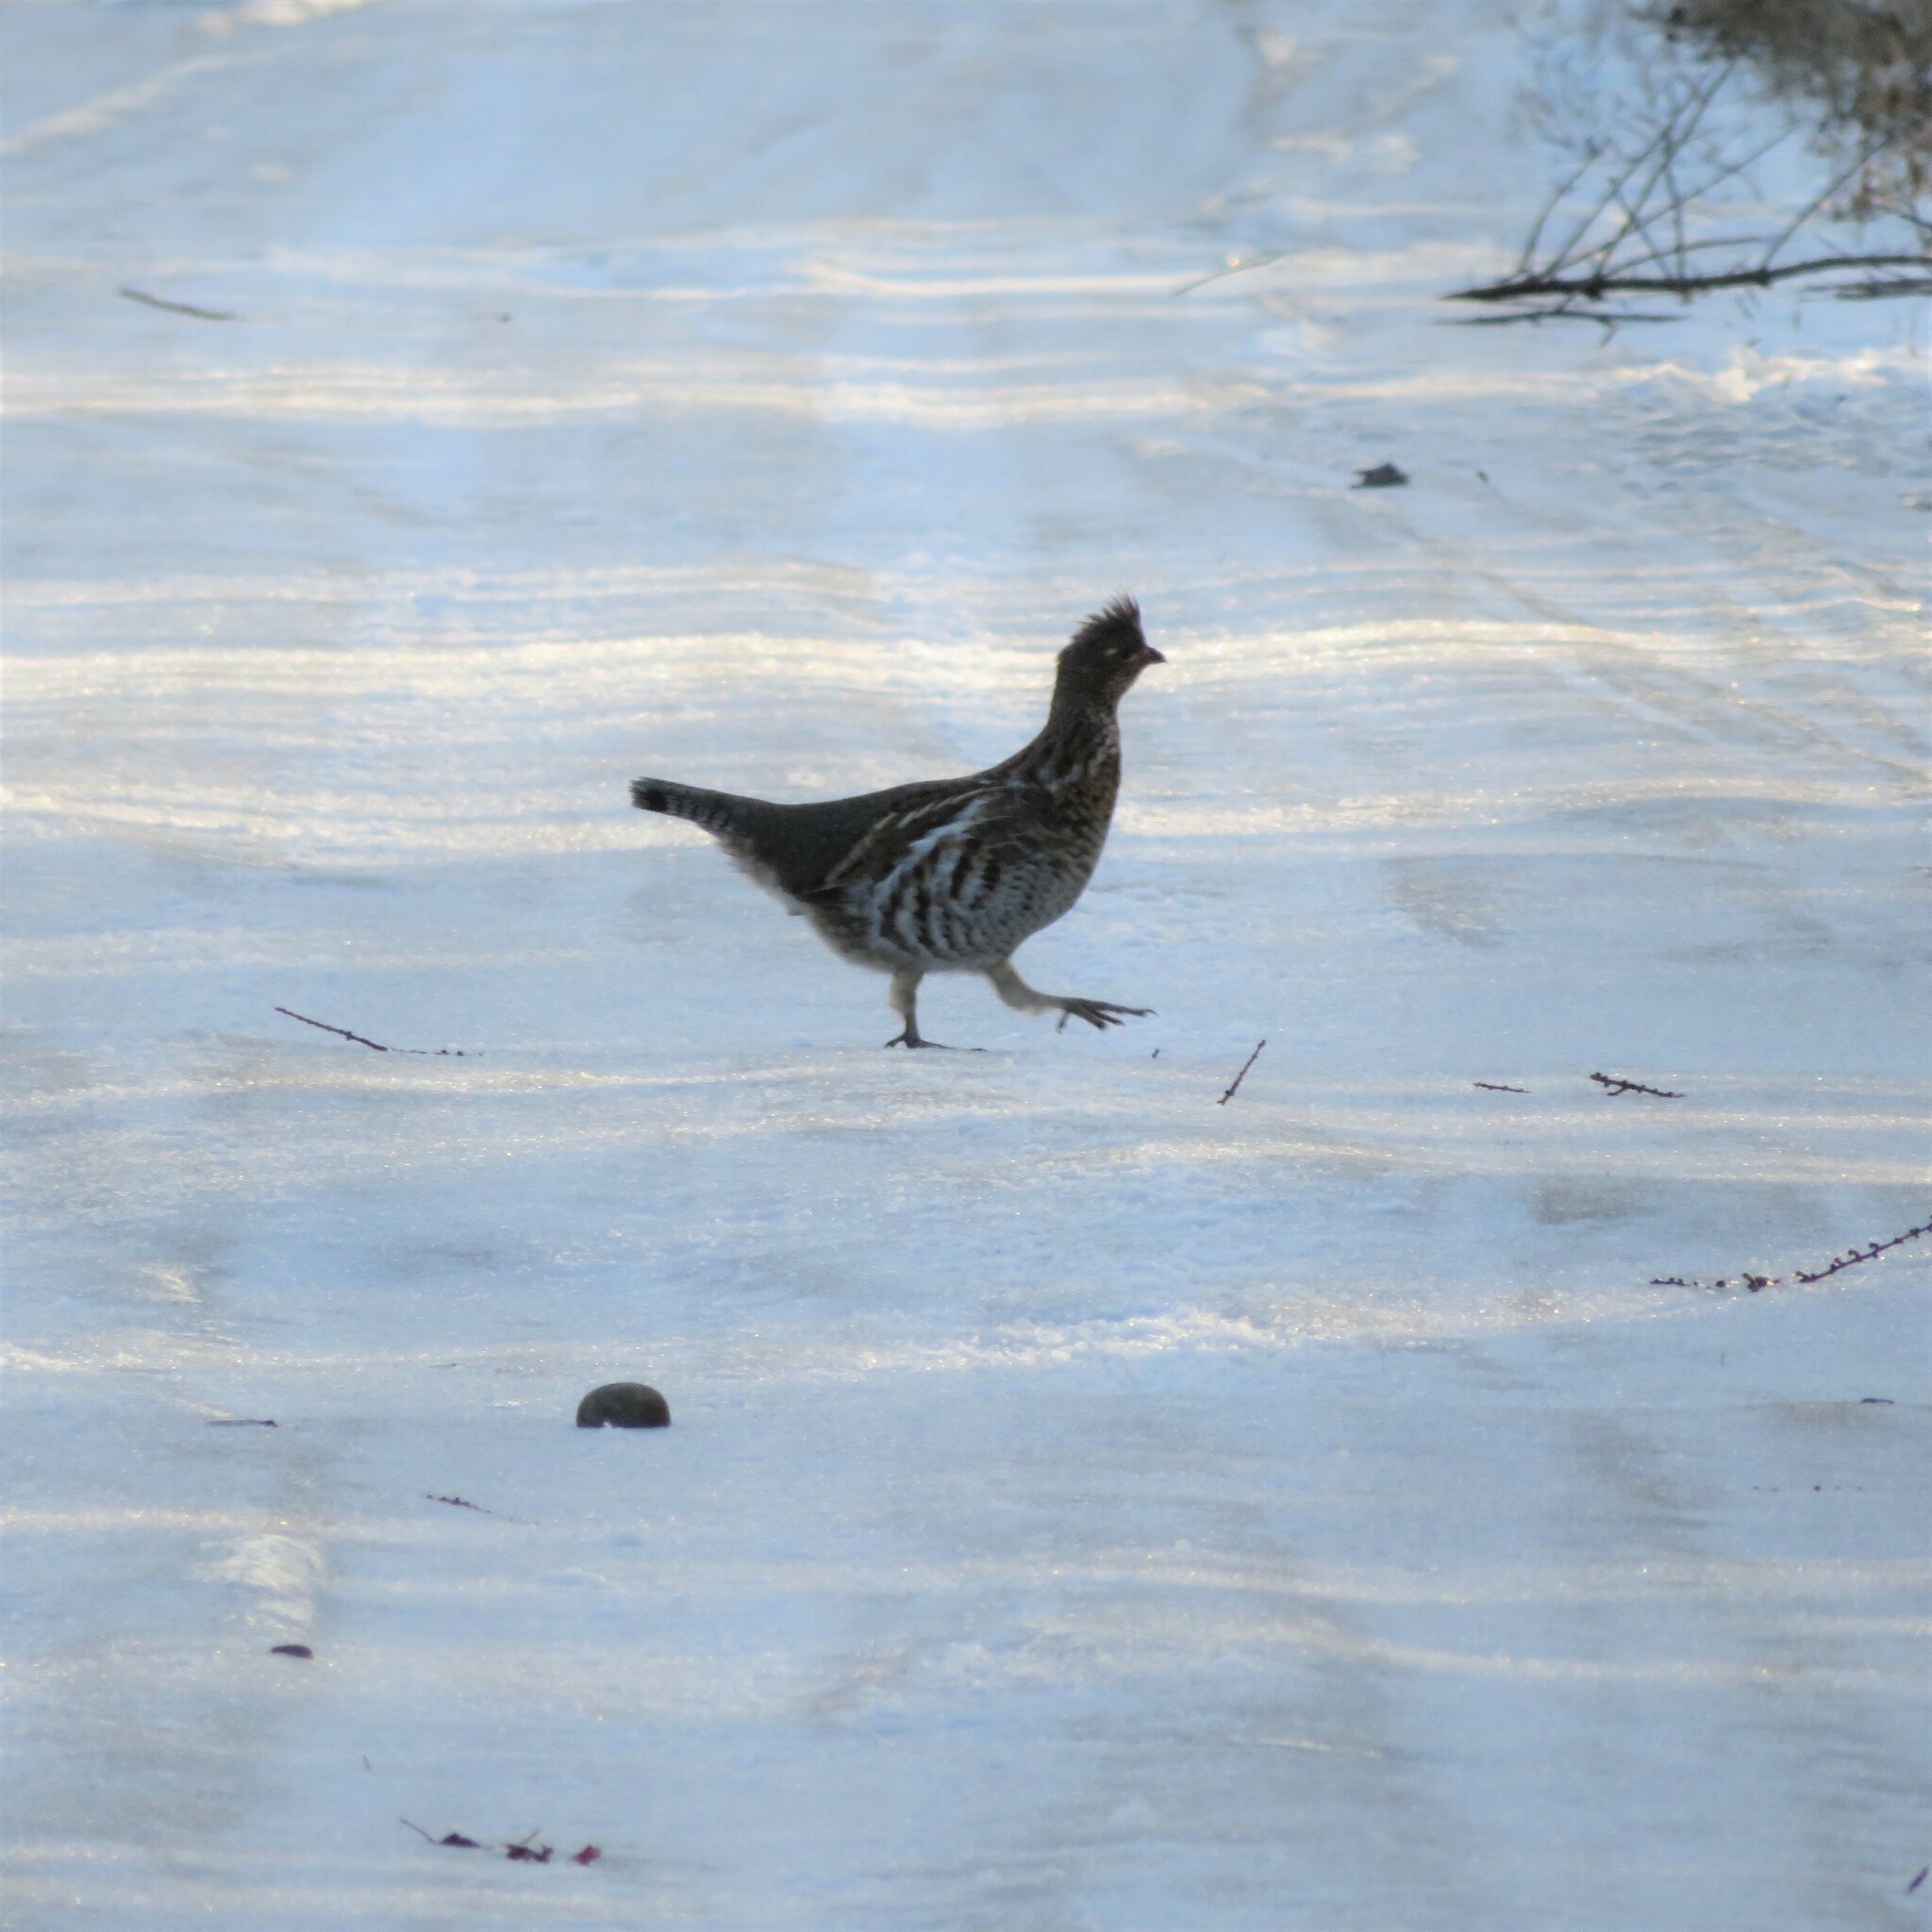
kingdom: Animalia
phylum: Chordata
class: Aves
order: Galliformes
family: Phasianidae
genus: Bonasa
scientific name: Bonasa umbellus
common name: Ruffed grouse
